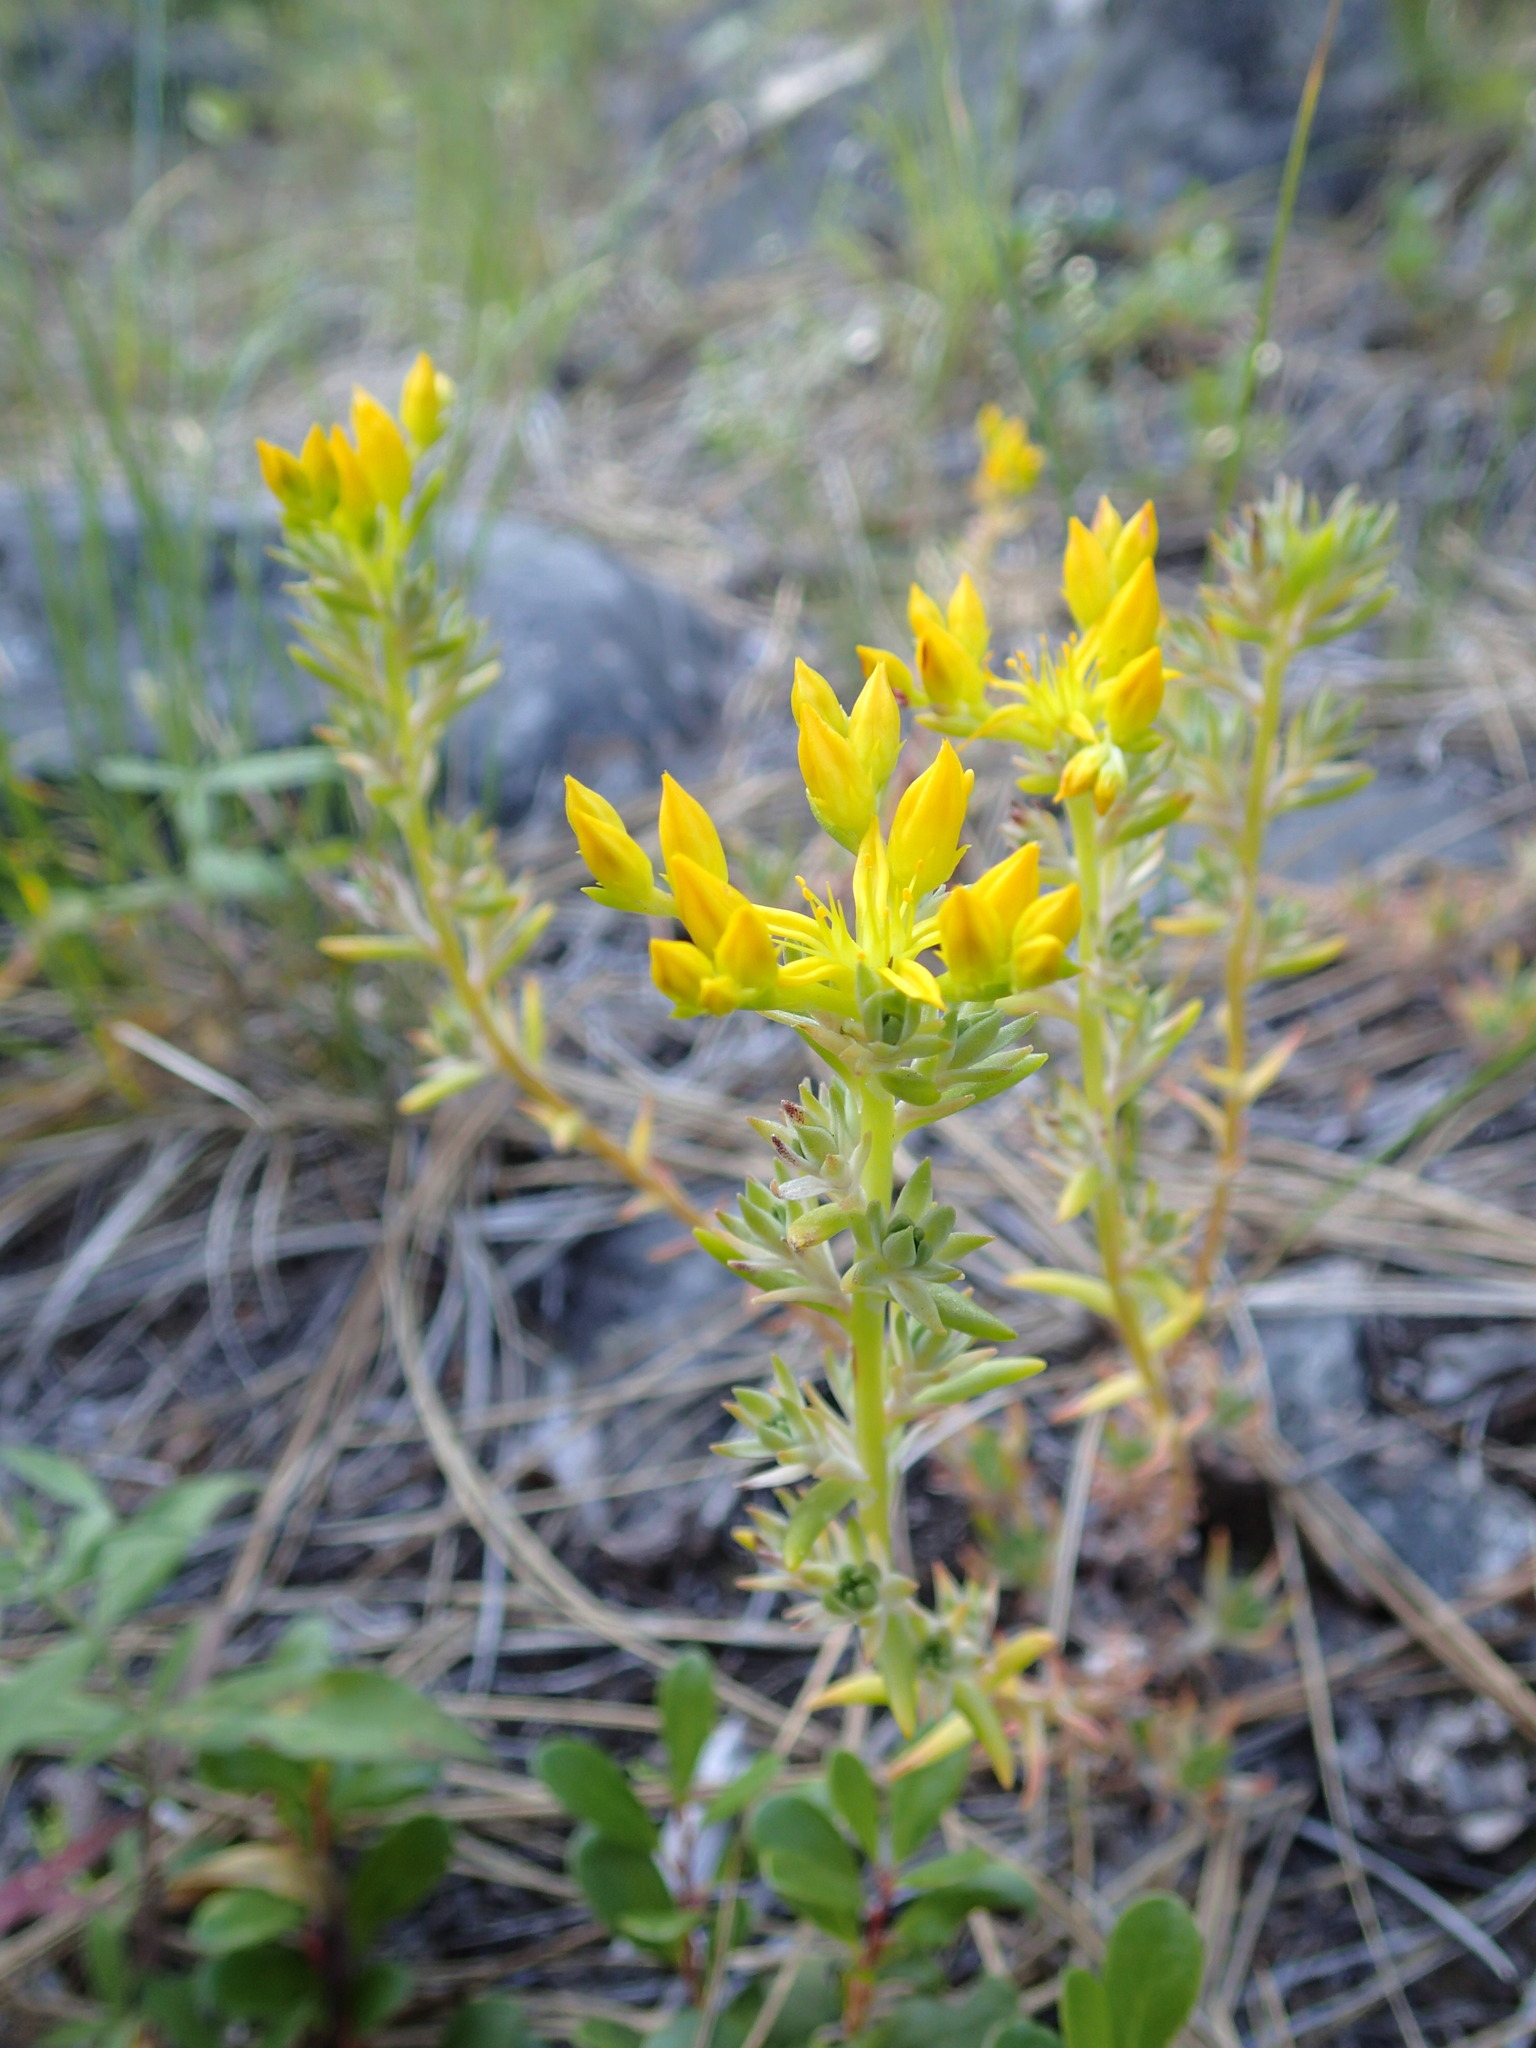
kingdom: Plantae
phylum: Tracheophyta
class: Magnoliopsida
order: Saxifragales
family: Crassulaceae
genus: Sedum
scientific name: Sedum stenopetalum
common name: Narrow-petaled stonecrop
